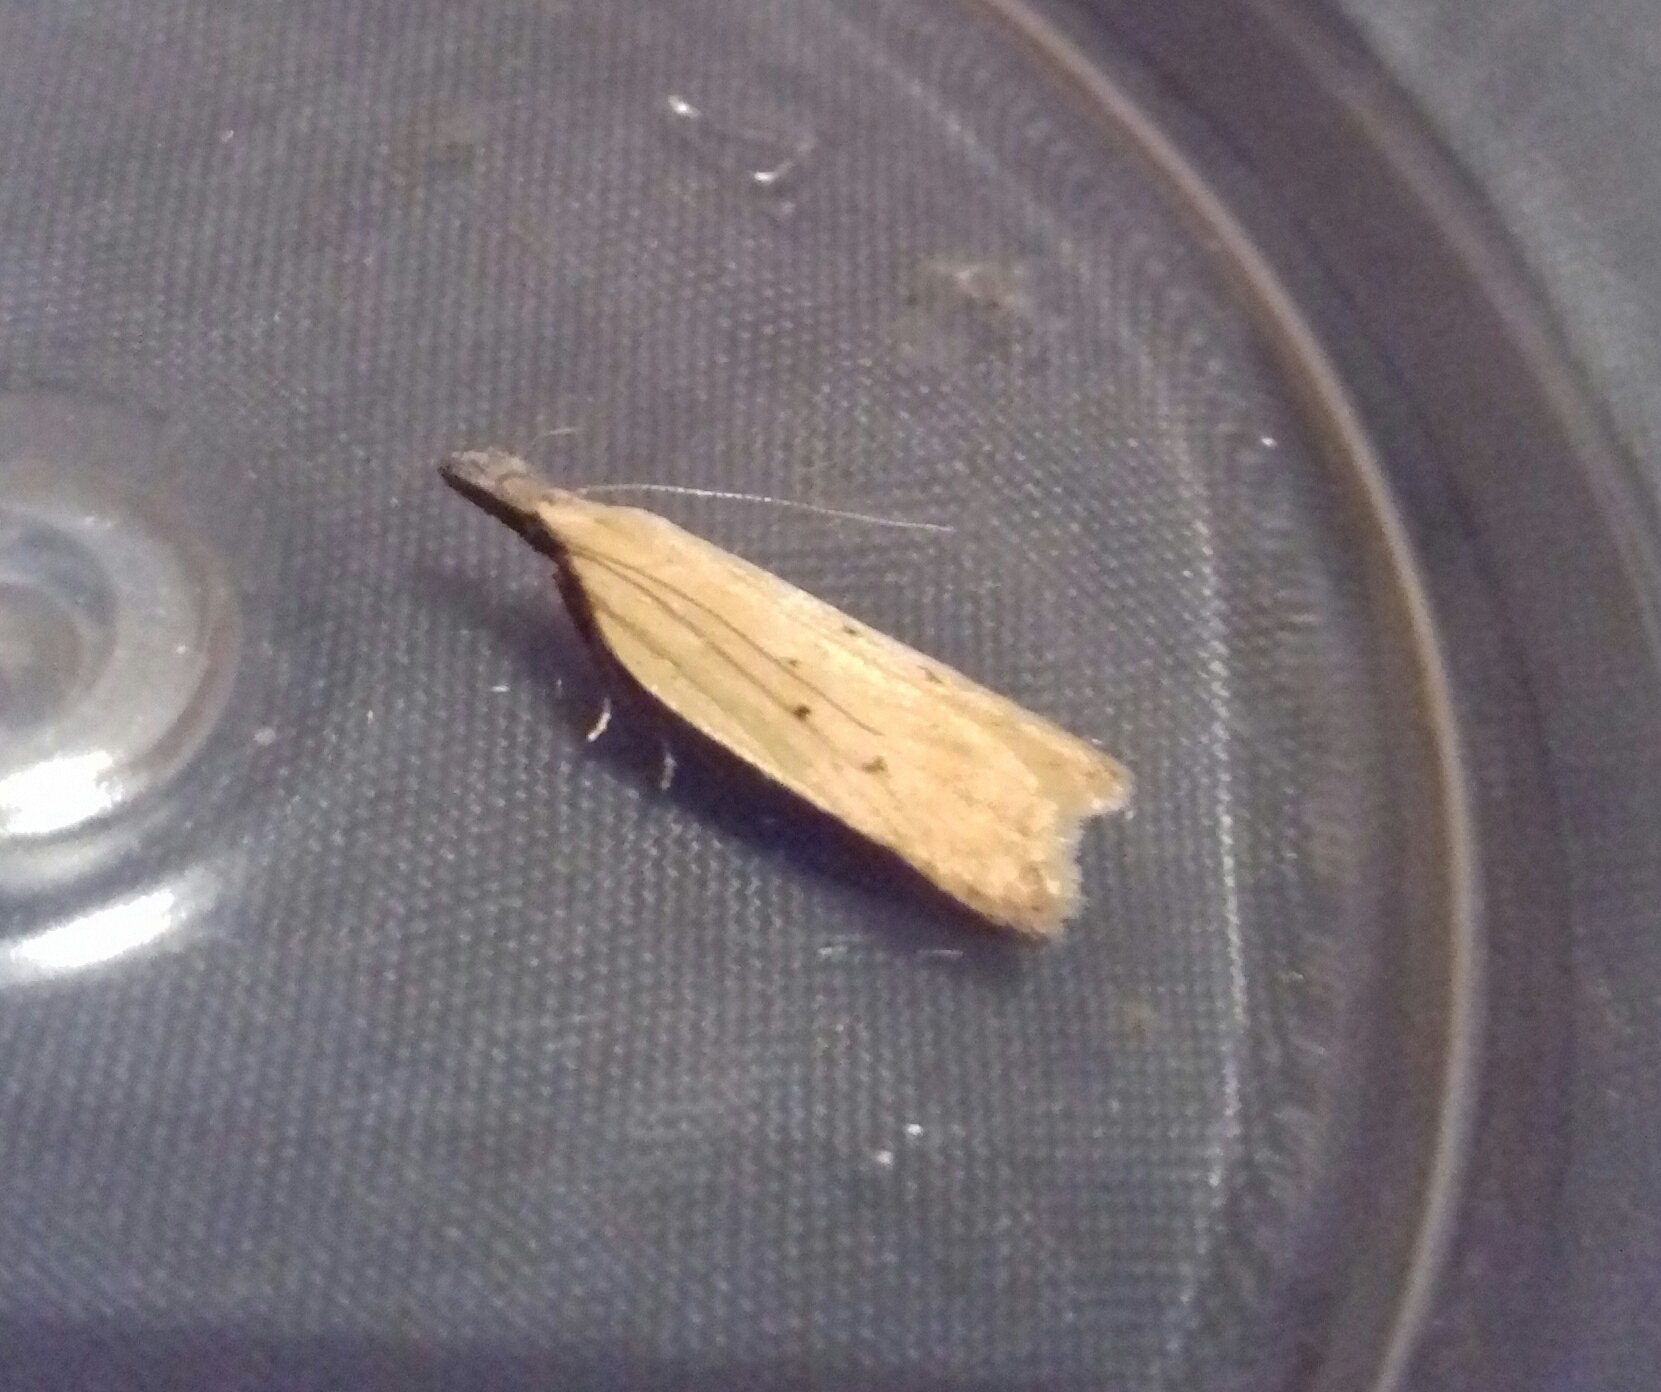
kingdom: Animalia
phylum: Arthropoda
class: Insecta
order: Lepidoptera
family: Gelechiidae
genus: Dichomeris
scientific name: Dichomeris limosellus
